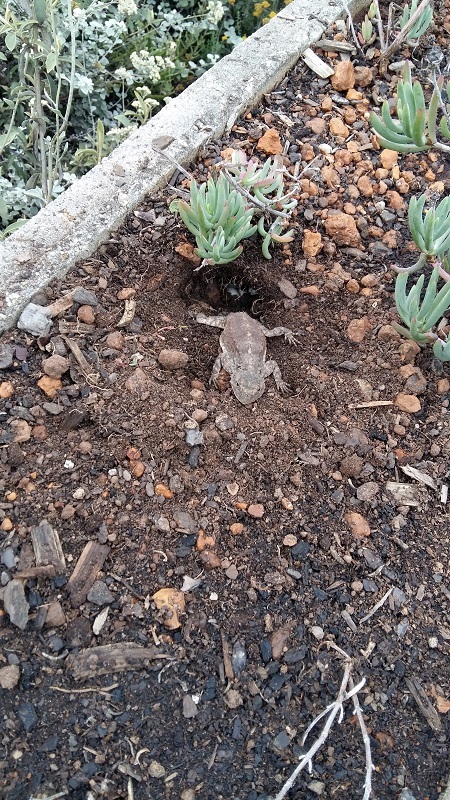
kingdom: Animalia
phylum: Chordata
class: Squamata
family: Agamidae
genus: Agama
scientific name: Agama atra
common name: Southern african rock agama
